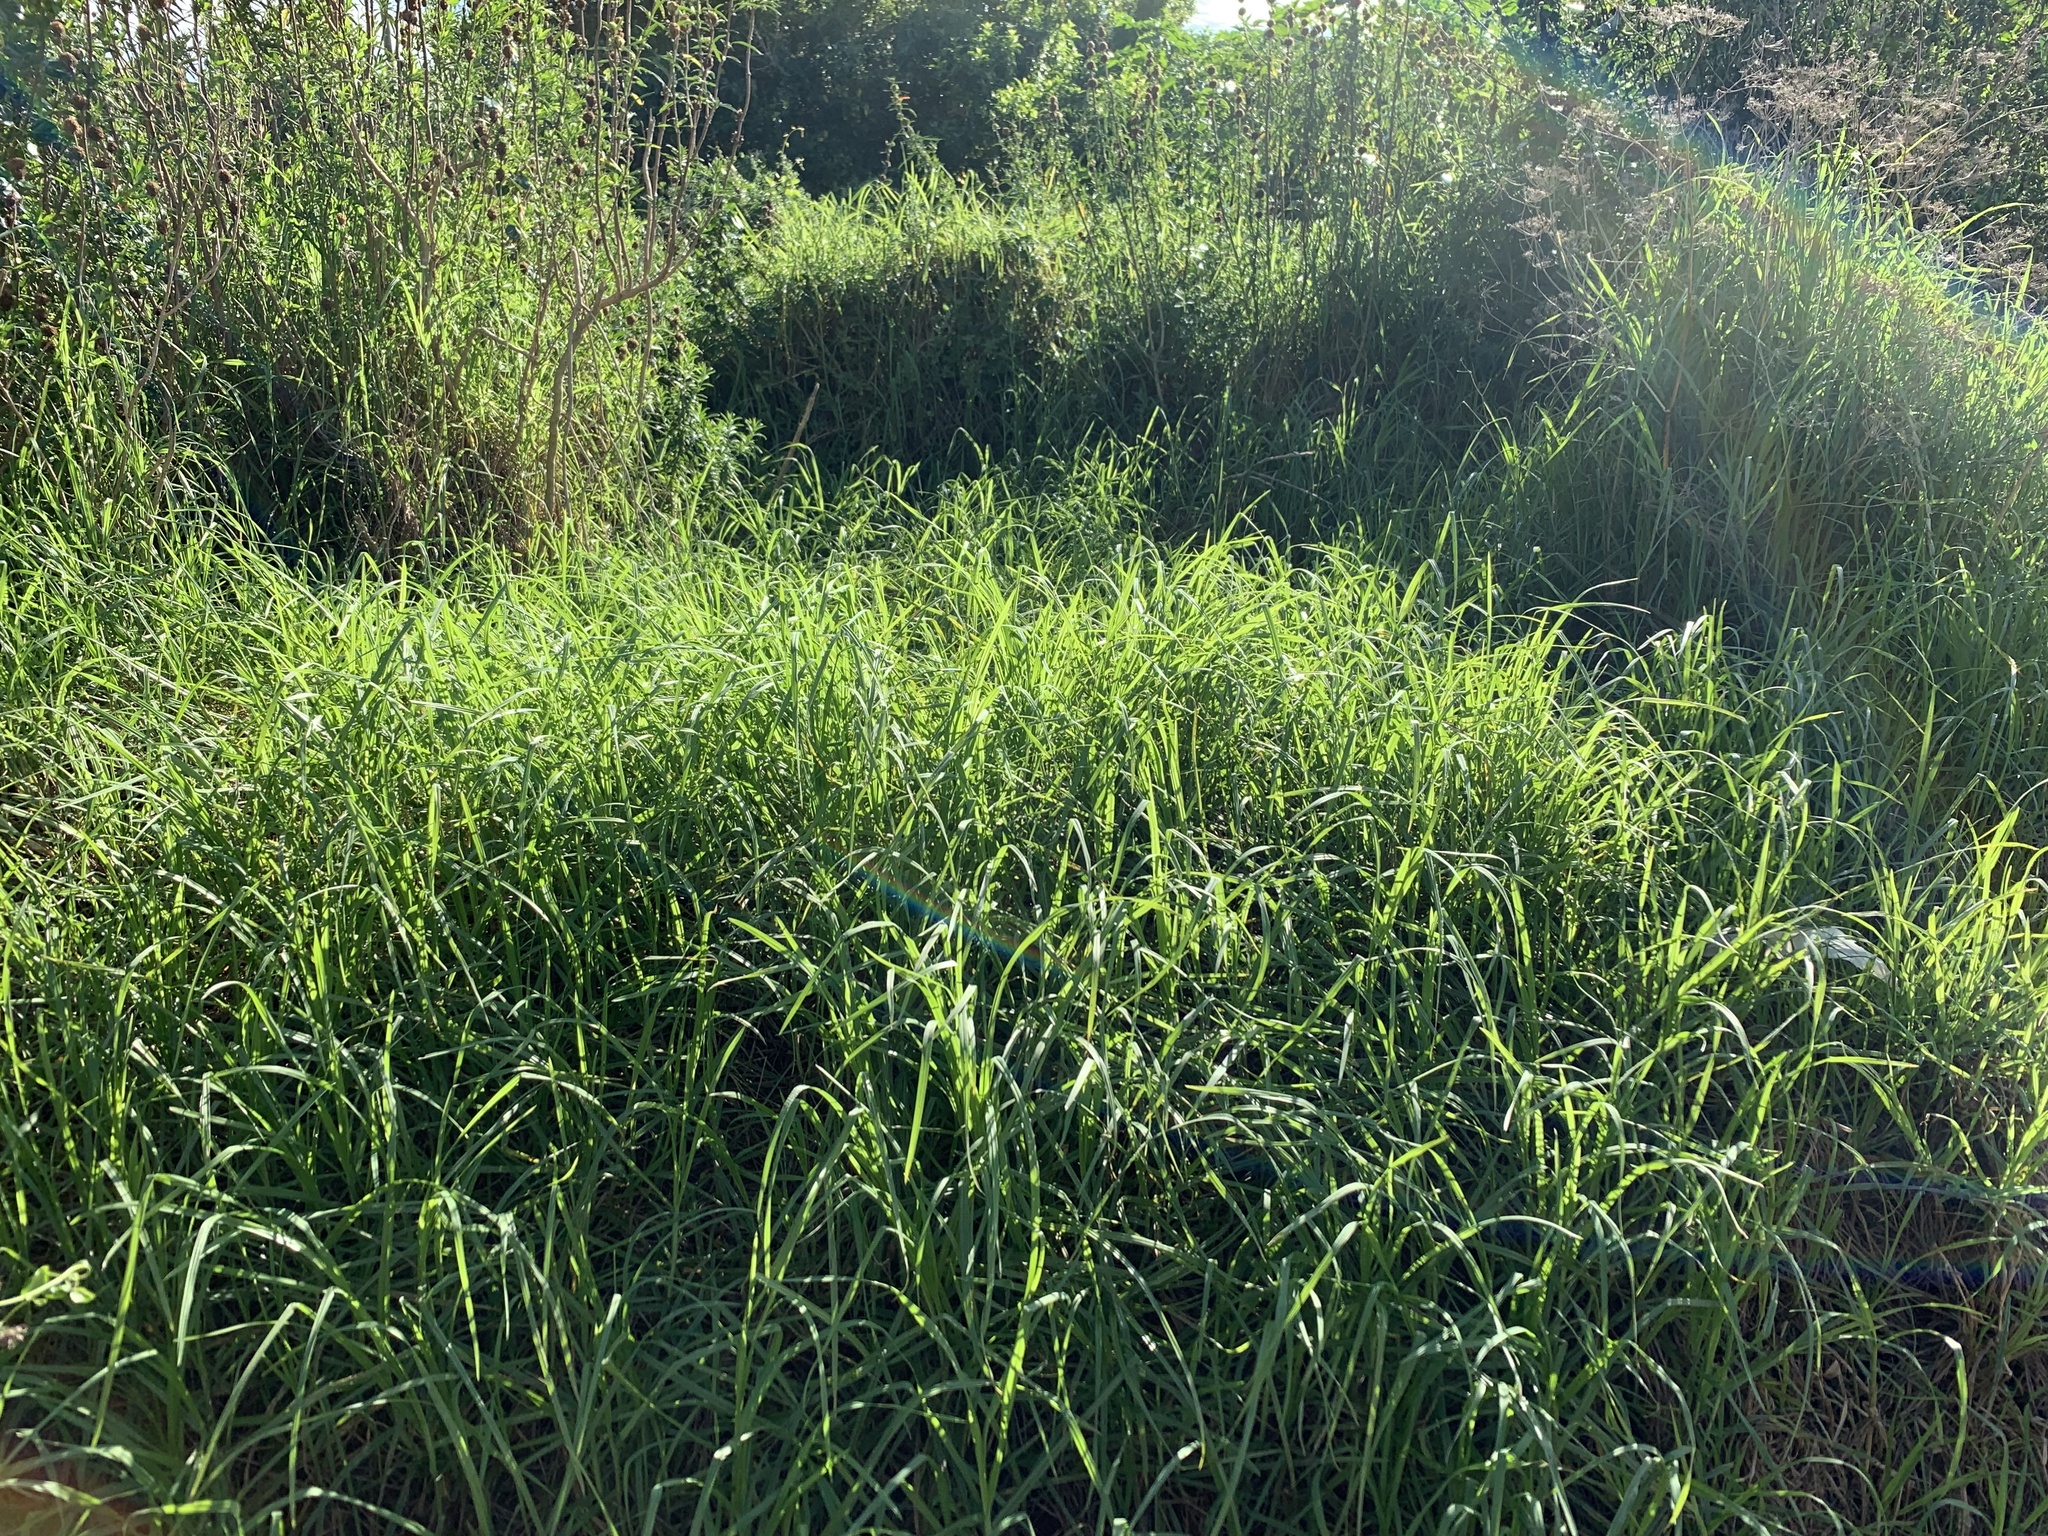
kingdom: Plantae
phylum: Tracheophyta
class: Liliopsida
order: Poales
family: Poaceae
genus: Cenchrus
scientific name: Cenchrus clandestinus
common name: Kikuyugrass
